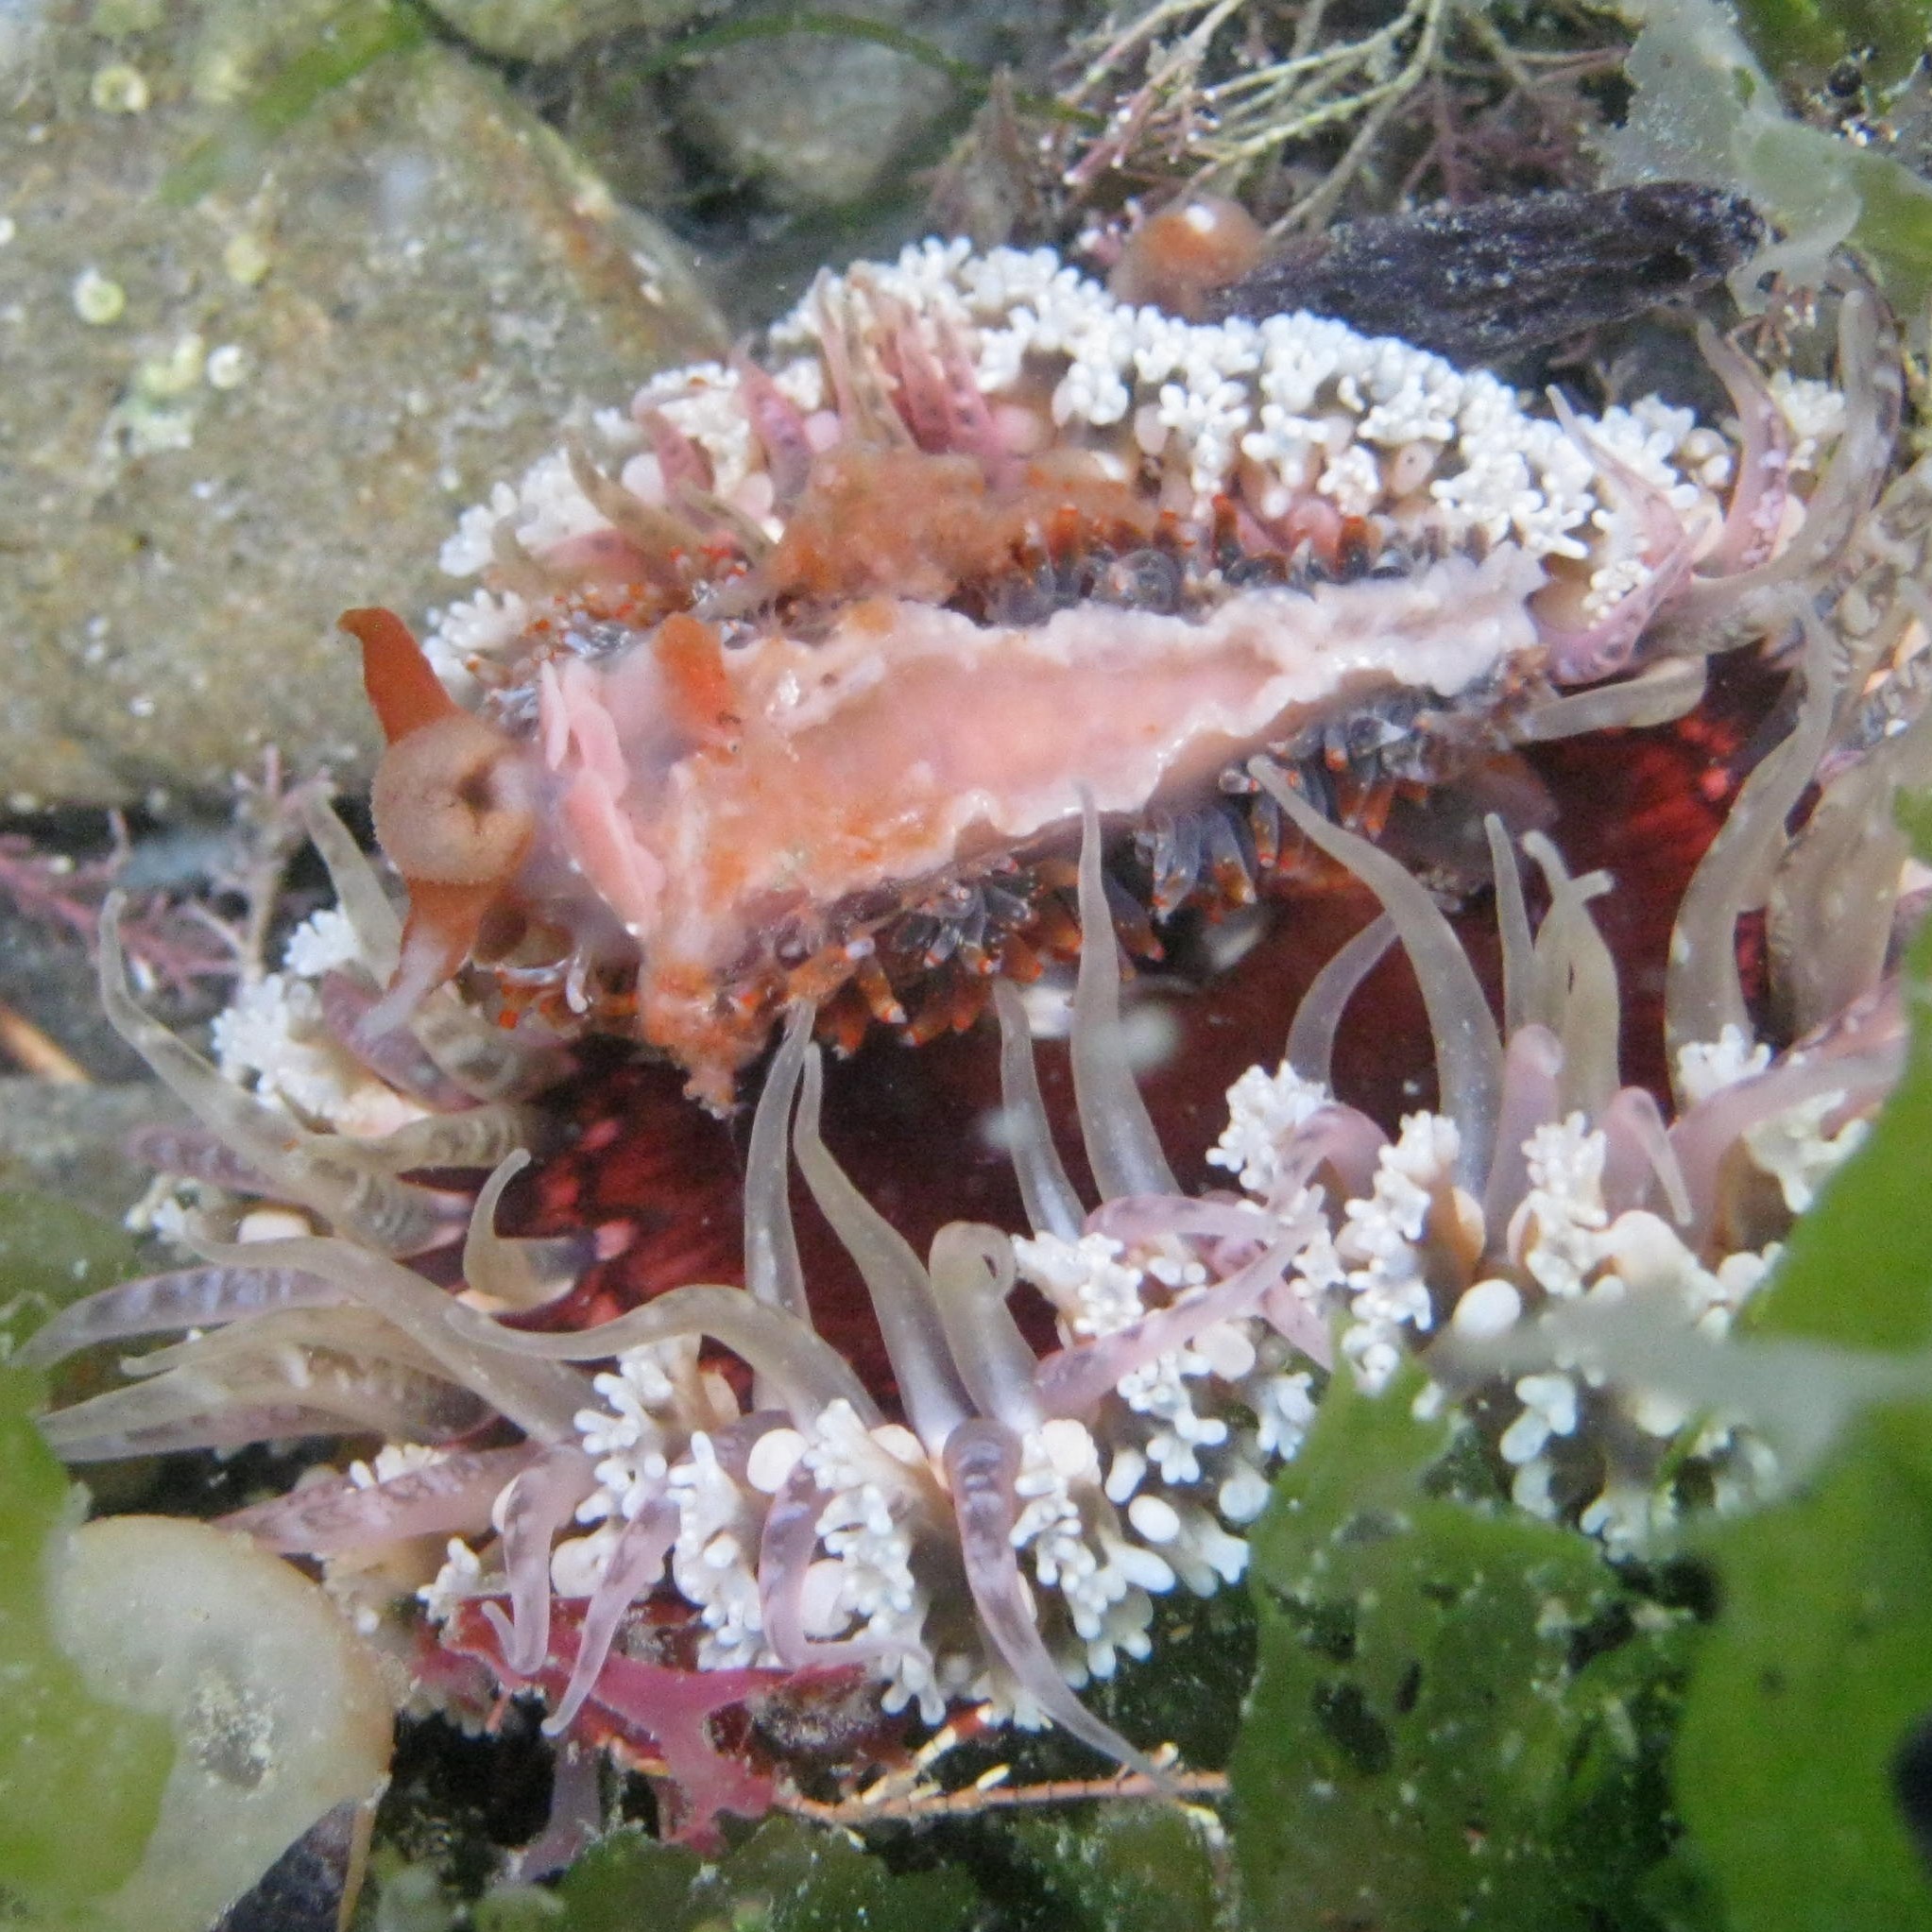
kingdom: Animalia
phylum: Cnidaria
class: Anthozoa
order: Actiniaria
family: Actiniidae
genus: Oulactis
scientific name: Oulactis muscosa
